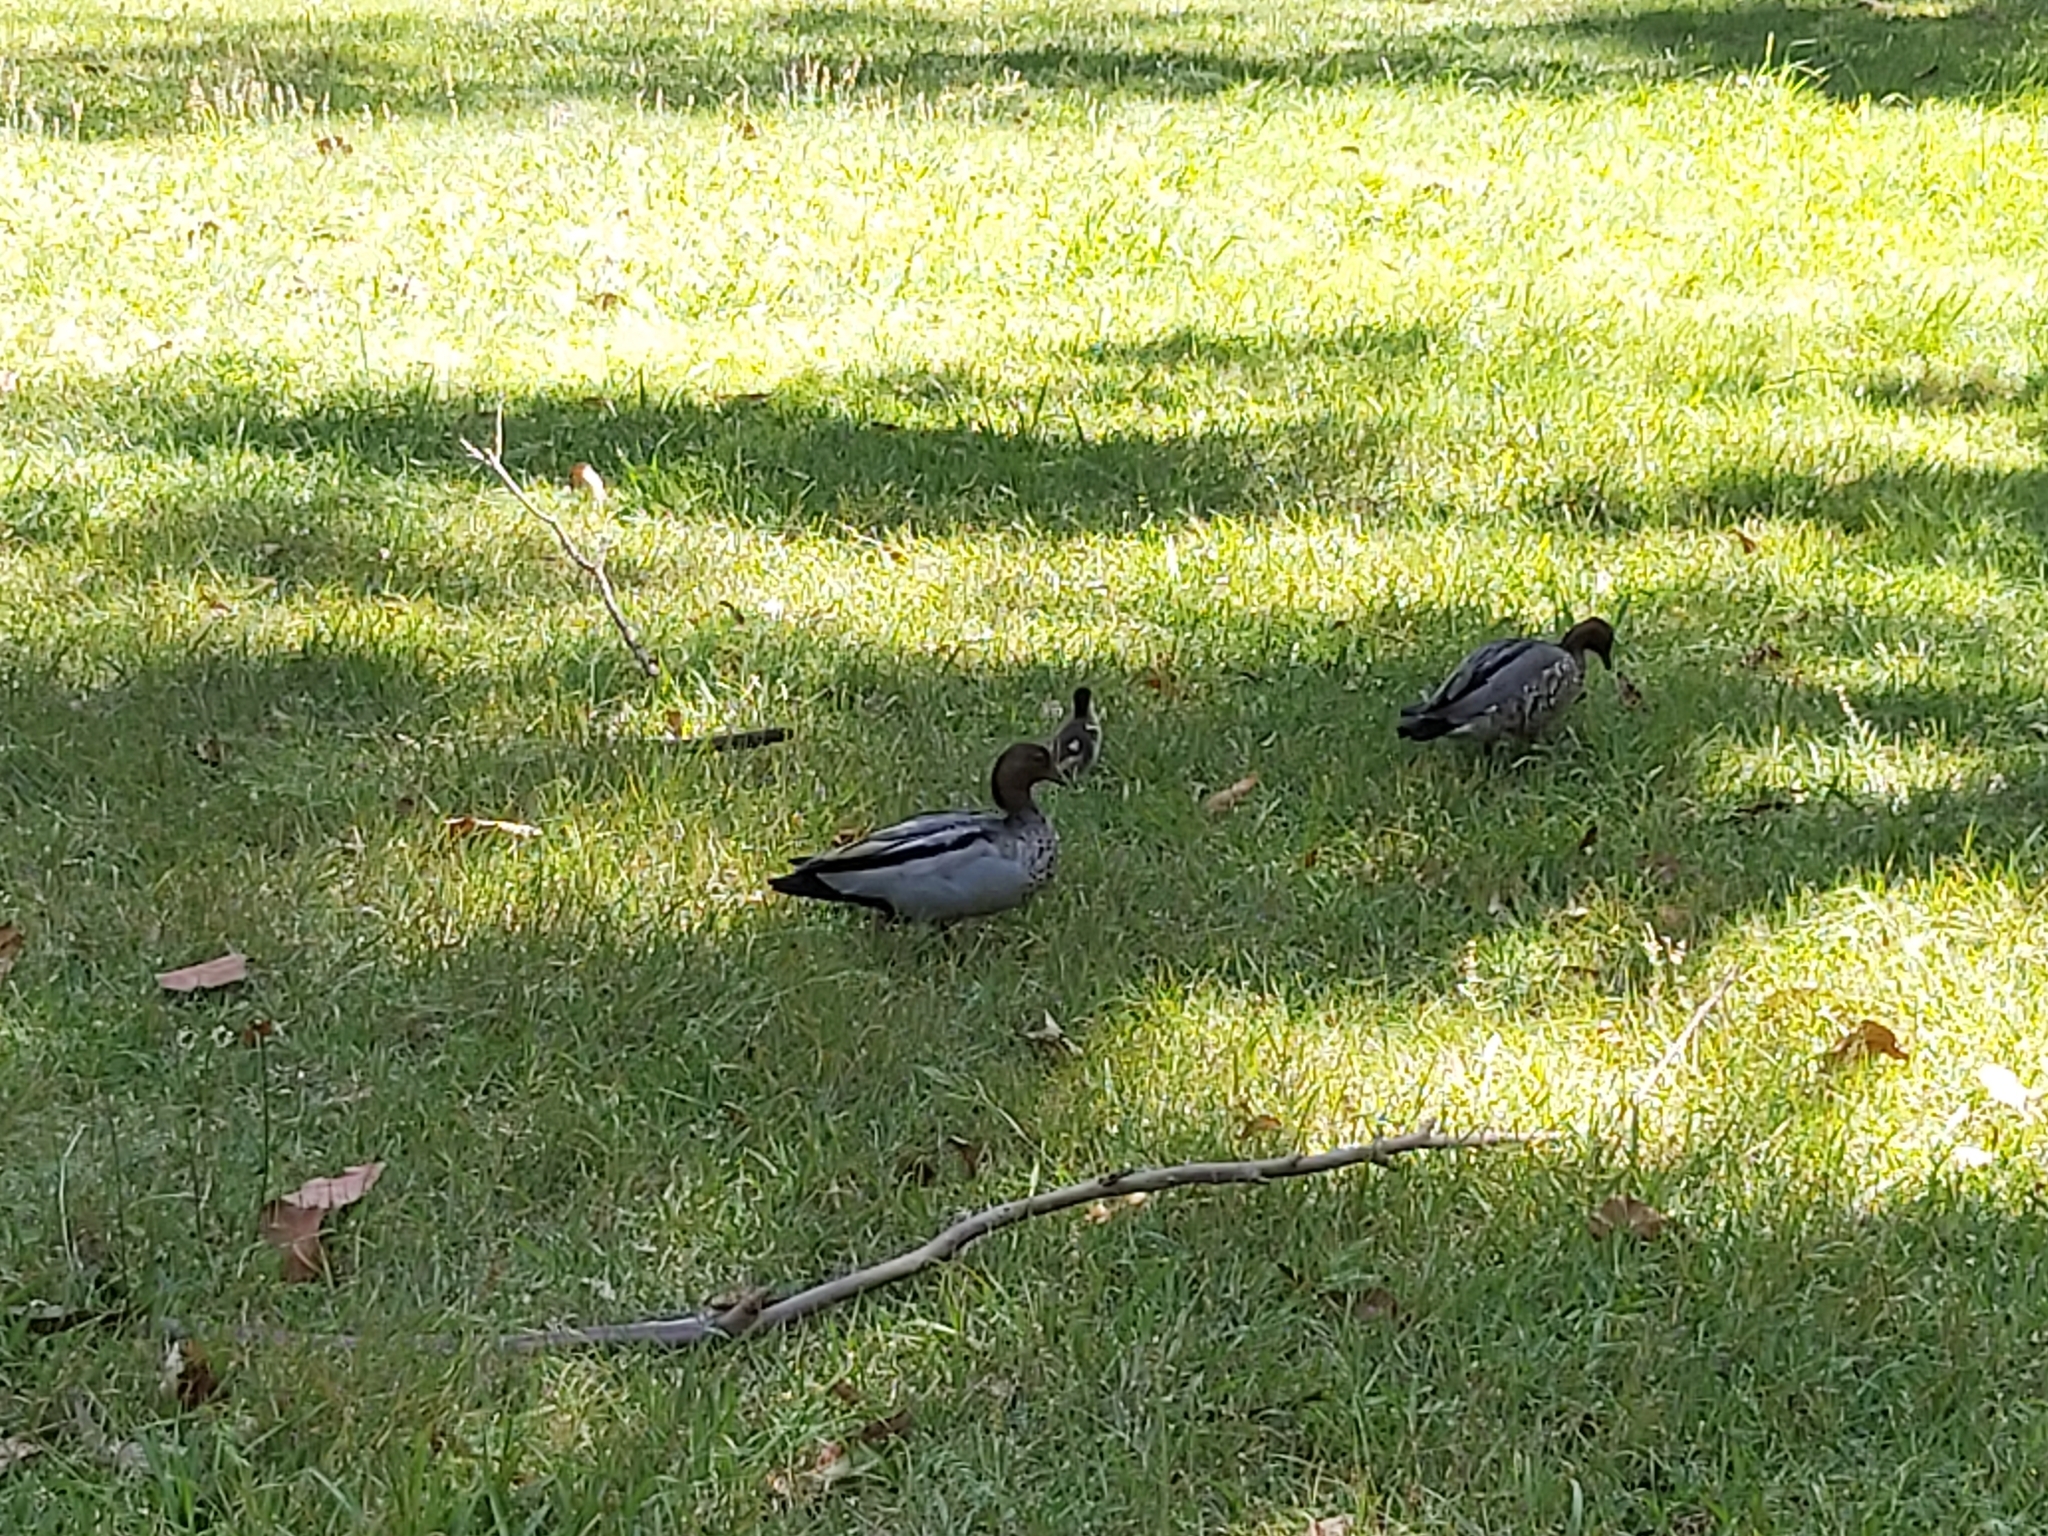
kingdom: Animalia
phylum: Chordata
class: Aves
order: Anseriformes
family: Anatidae
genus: Chenonetta
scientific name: Chenonetta jubata
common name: Maned duck
